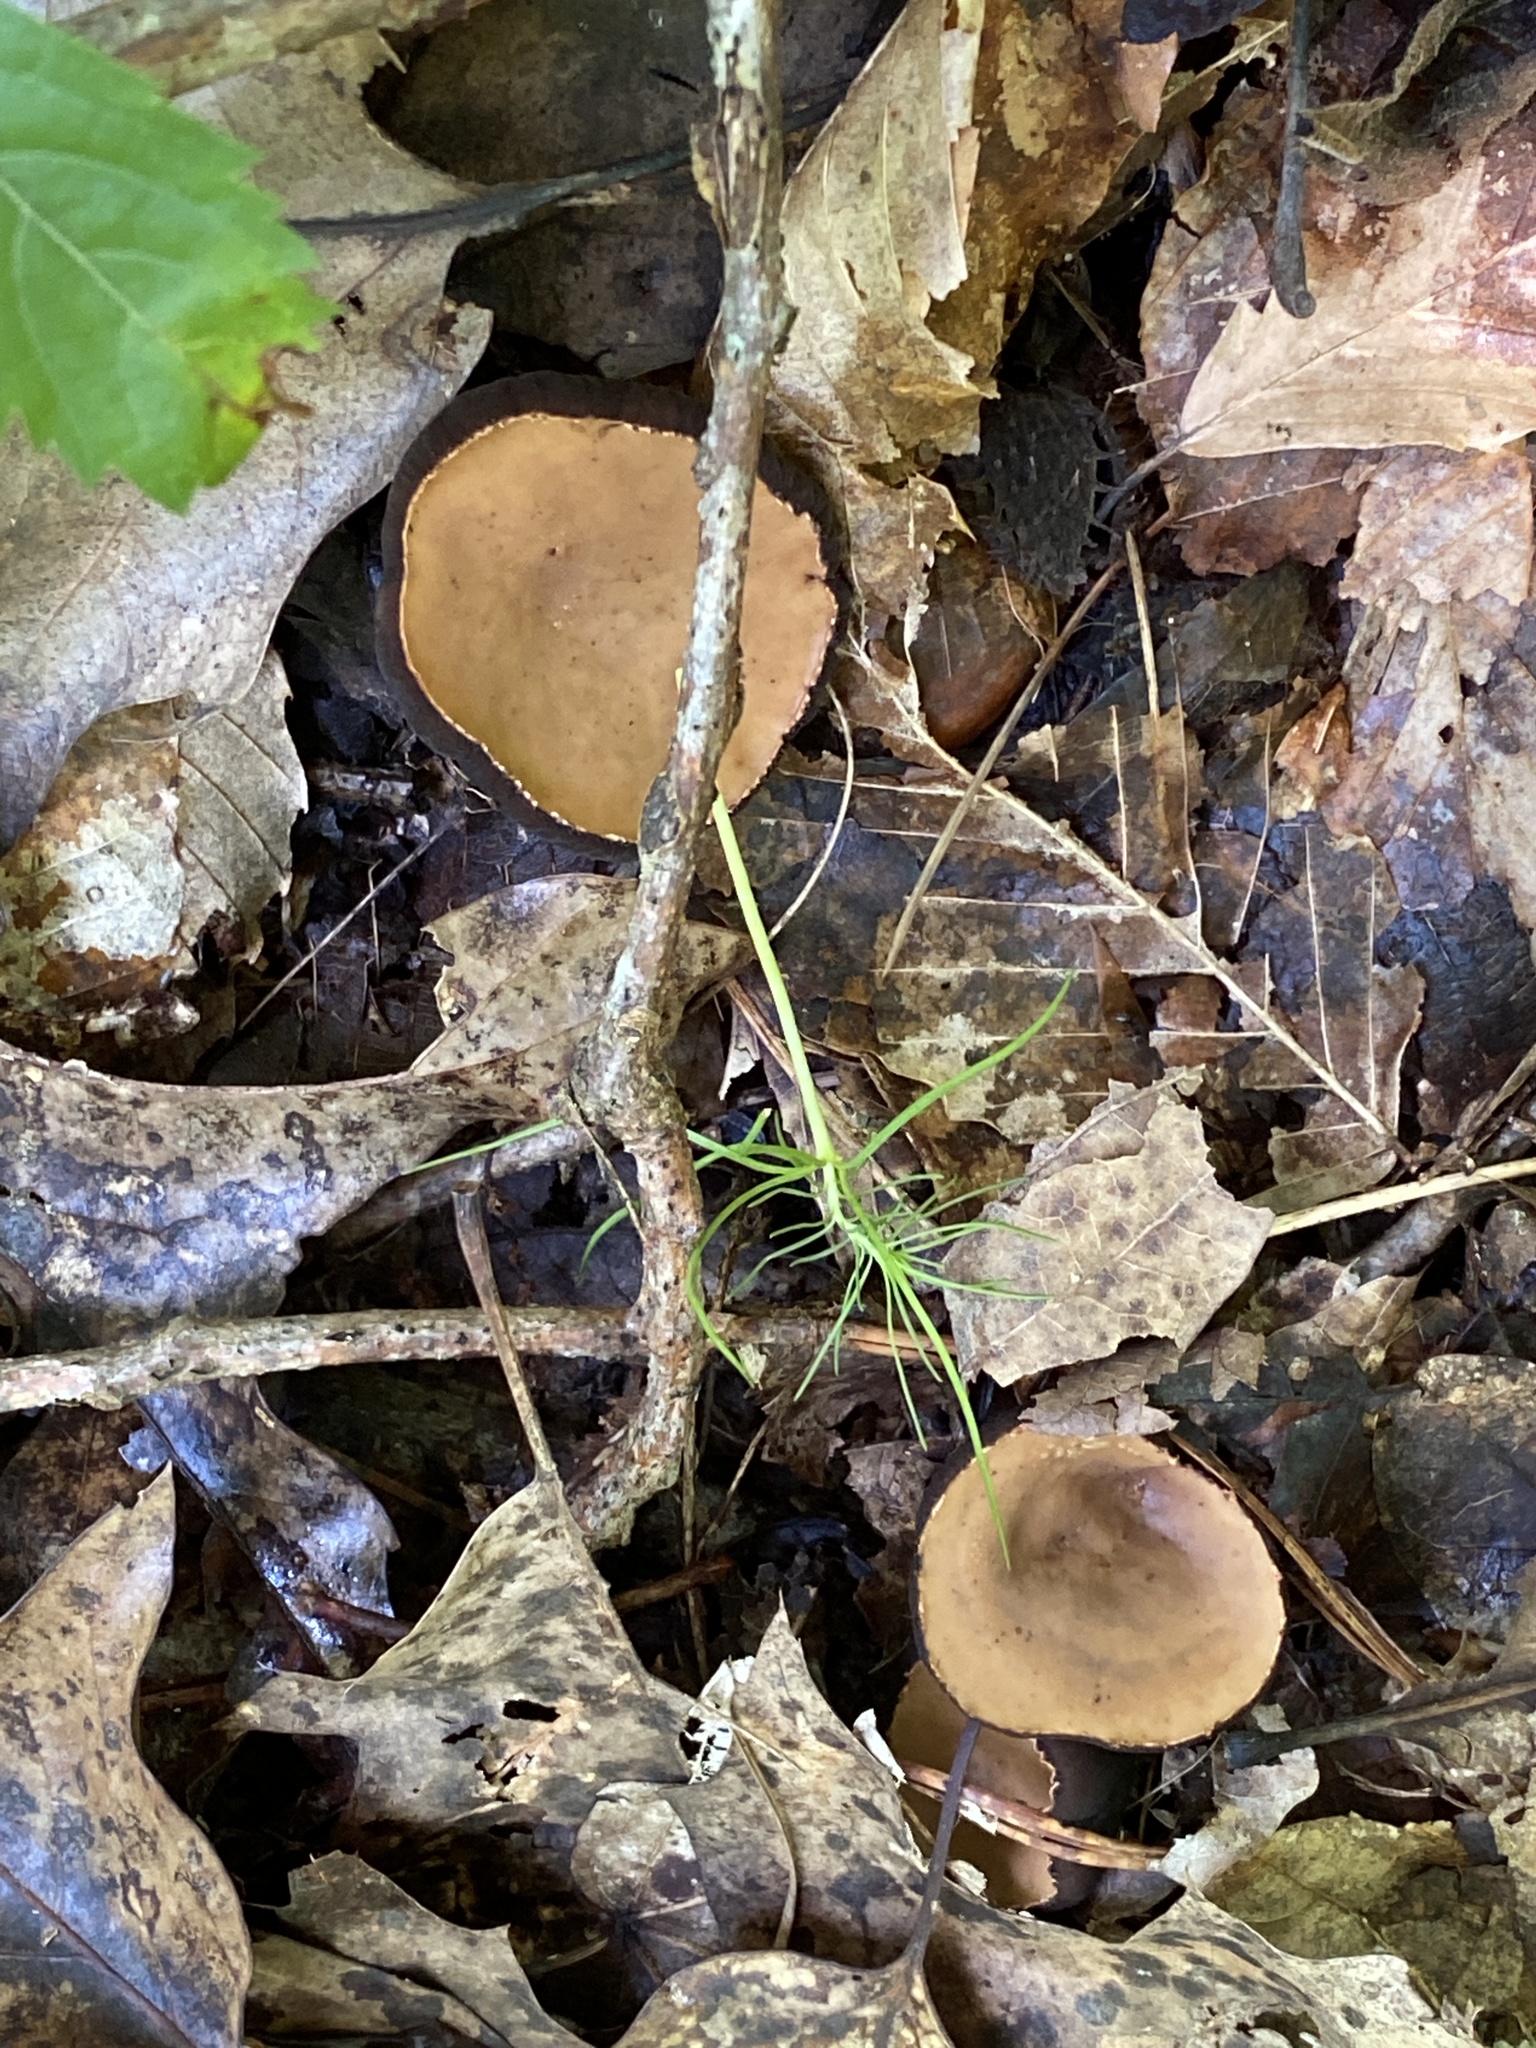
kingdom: Fungi
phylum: Ascomycota
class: Pezizomycetes
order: Pezizales
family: Sarcosomataceae
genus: Galiella
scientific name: Galiella rufa
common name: Hairy rubber cup
